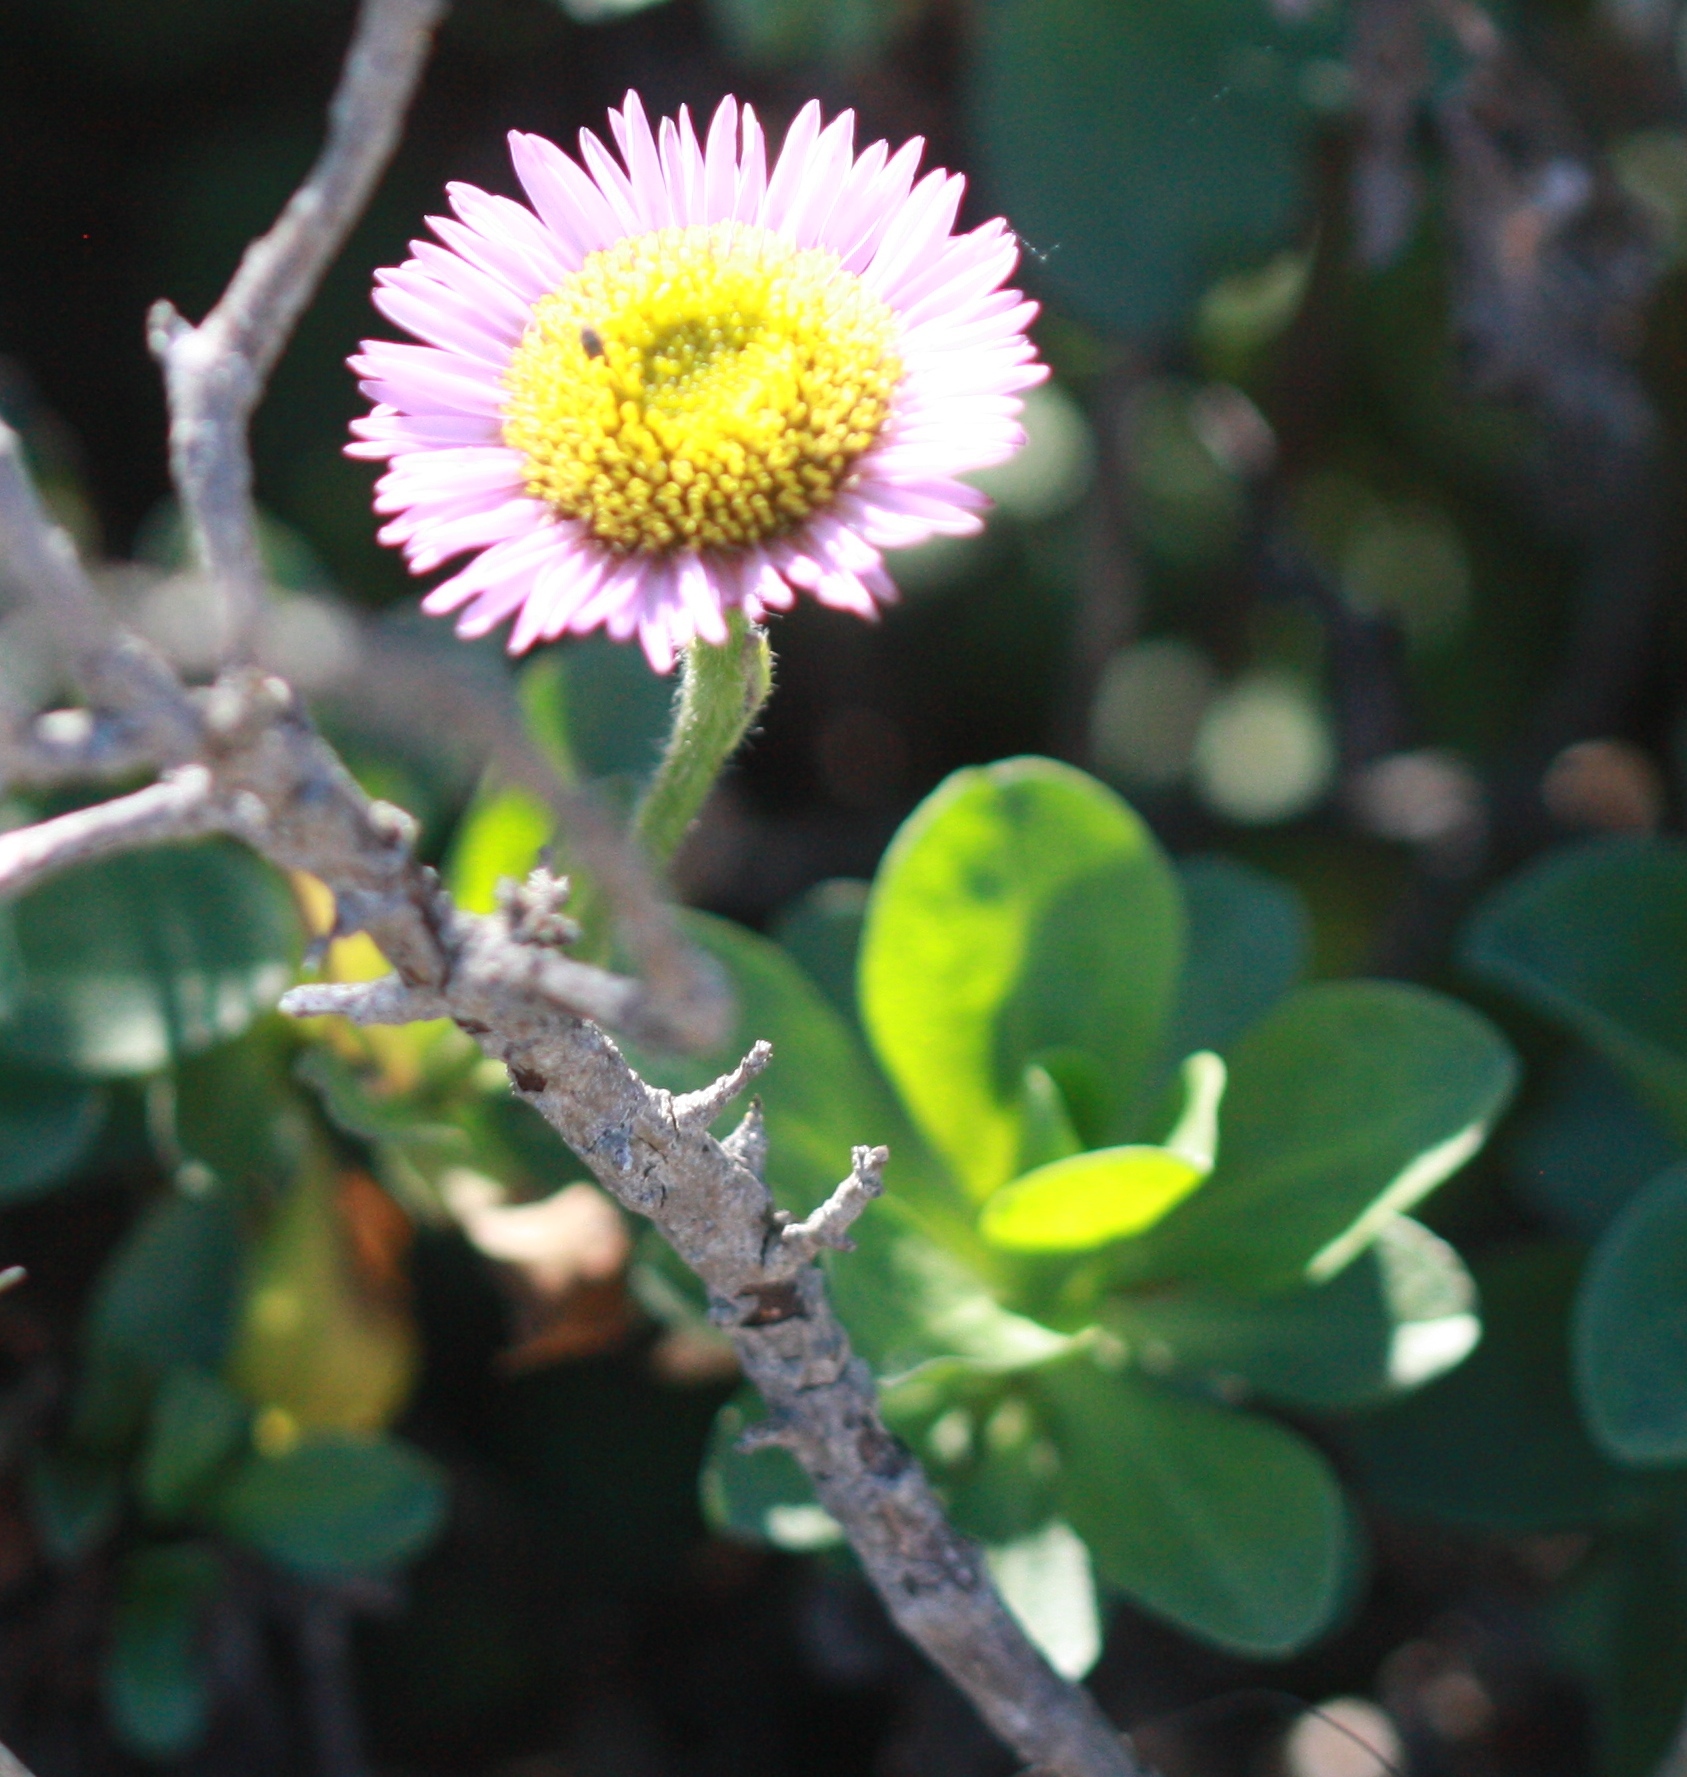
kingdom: Plantae
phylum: Tracheophyta
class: Magnoliopsida
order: Asterales
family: Asteraceae
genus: Erigeron
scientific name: Erigeron glaucus
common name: Seaside daisy
